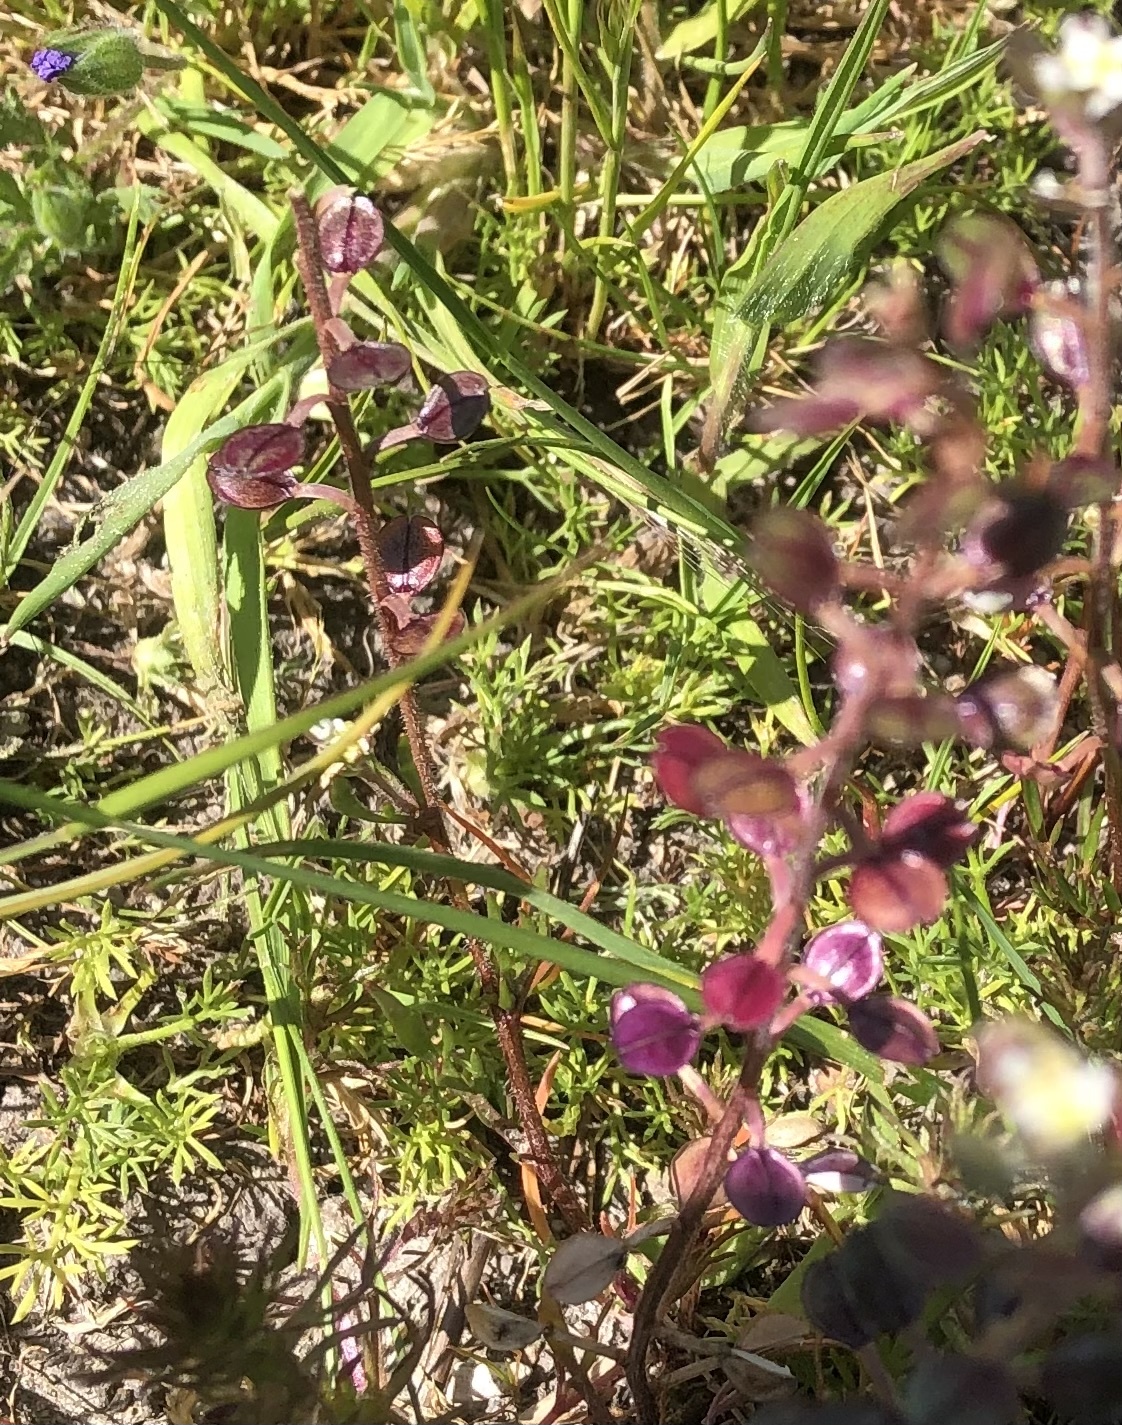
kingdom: Plantae
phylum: Tracheophyta
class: Magnoliopsida
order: Brassicales
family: Brassicaceae
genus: Lepidium
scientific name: Lepidium nitidum
